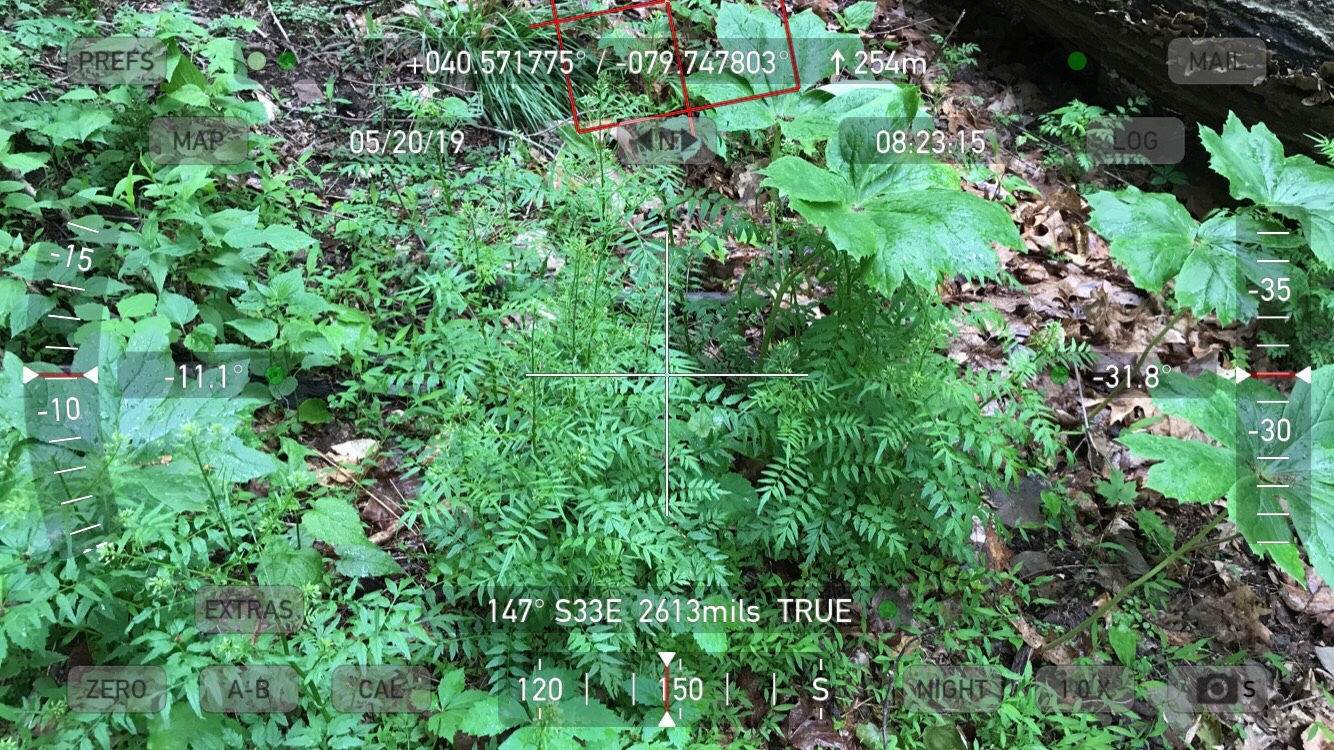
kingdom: Plantae
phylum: Tracheophyta
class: Magnoliopsida
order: Brassicales
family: Brassicaceae
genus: Cardamine
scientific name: Cardamine impatiens
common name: Narrow-leaved bitter-cress
